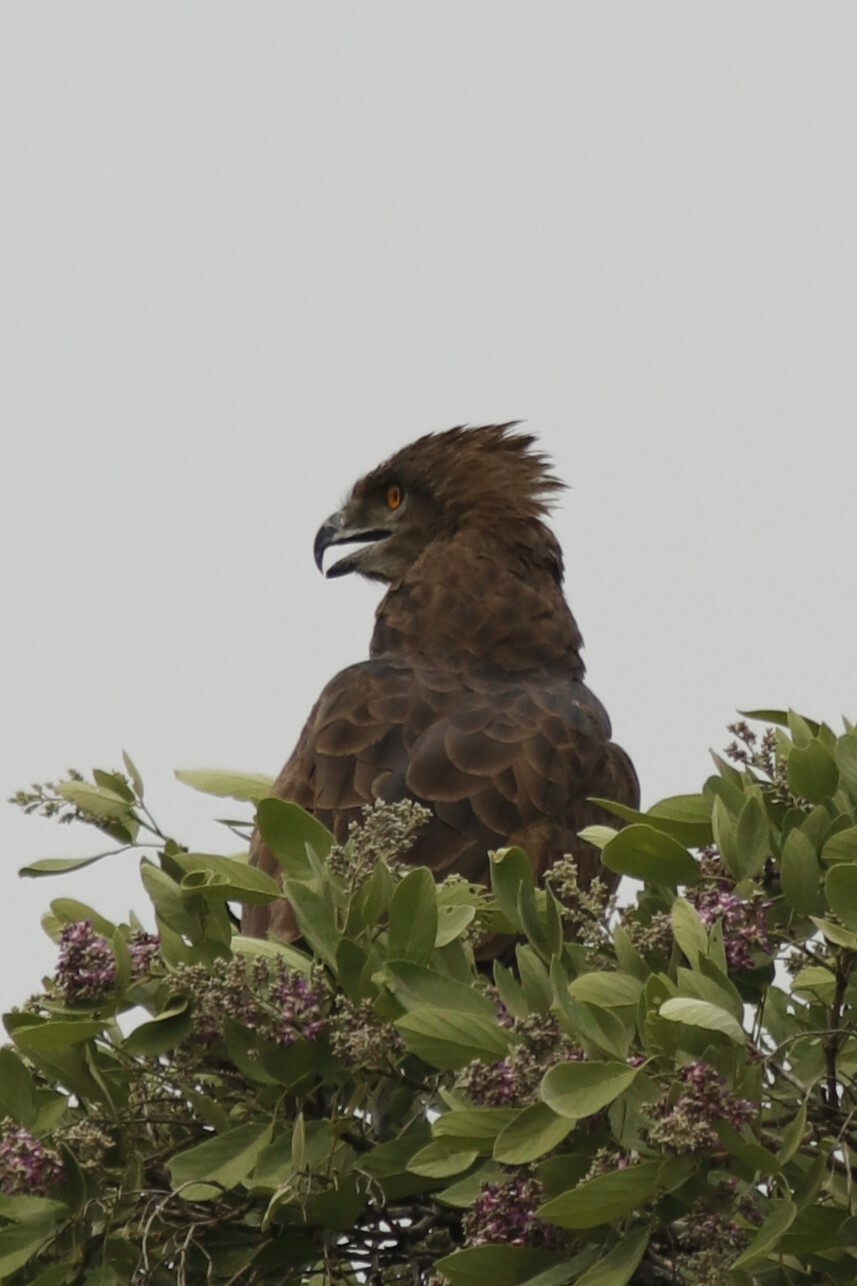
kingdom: Animalia
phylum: Chordata
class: Aves
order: Accipitriformes
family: Accipitridae
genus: Circaetus
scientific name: Circaetus cinereus
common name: Brown snake eagle
